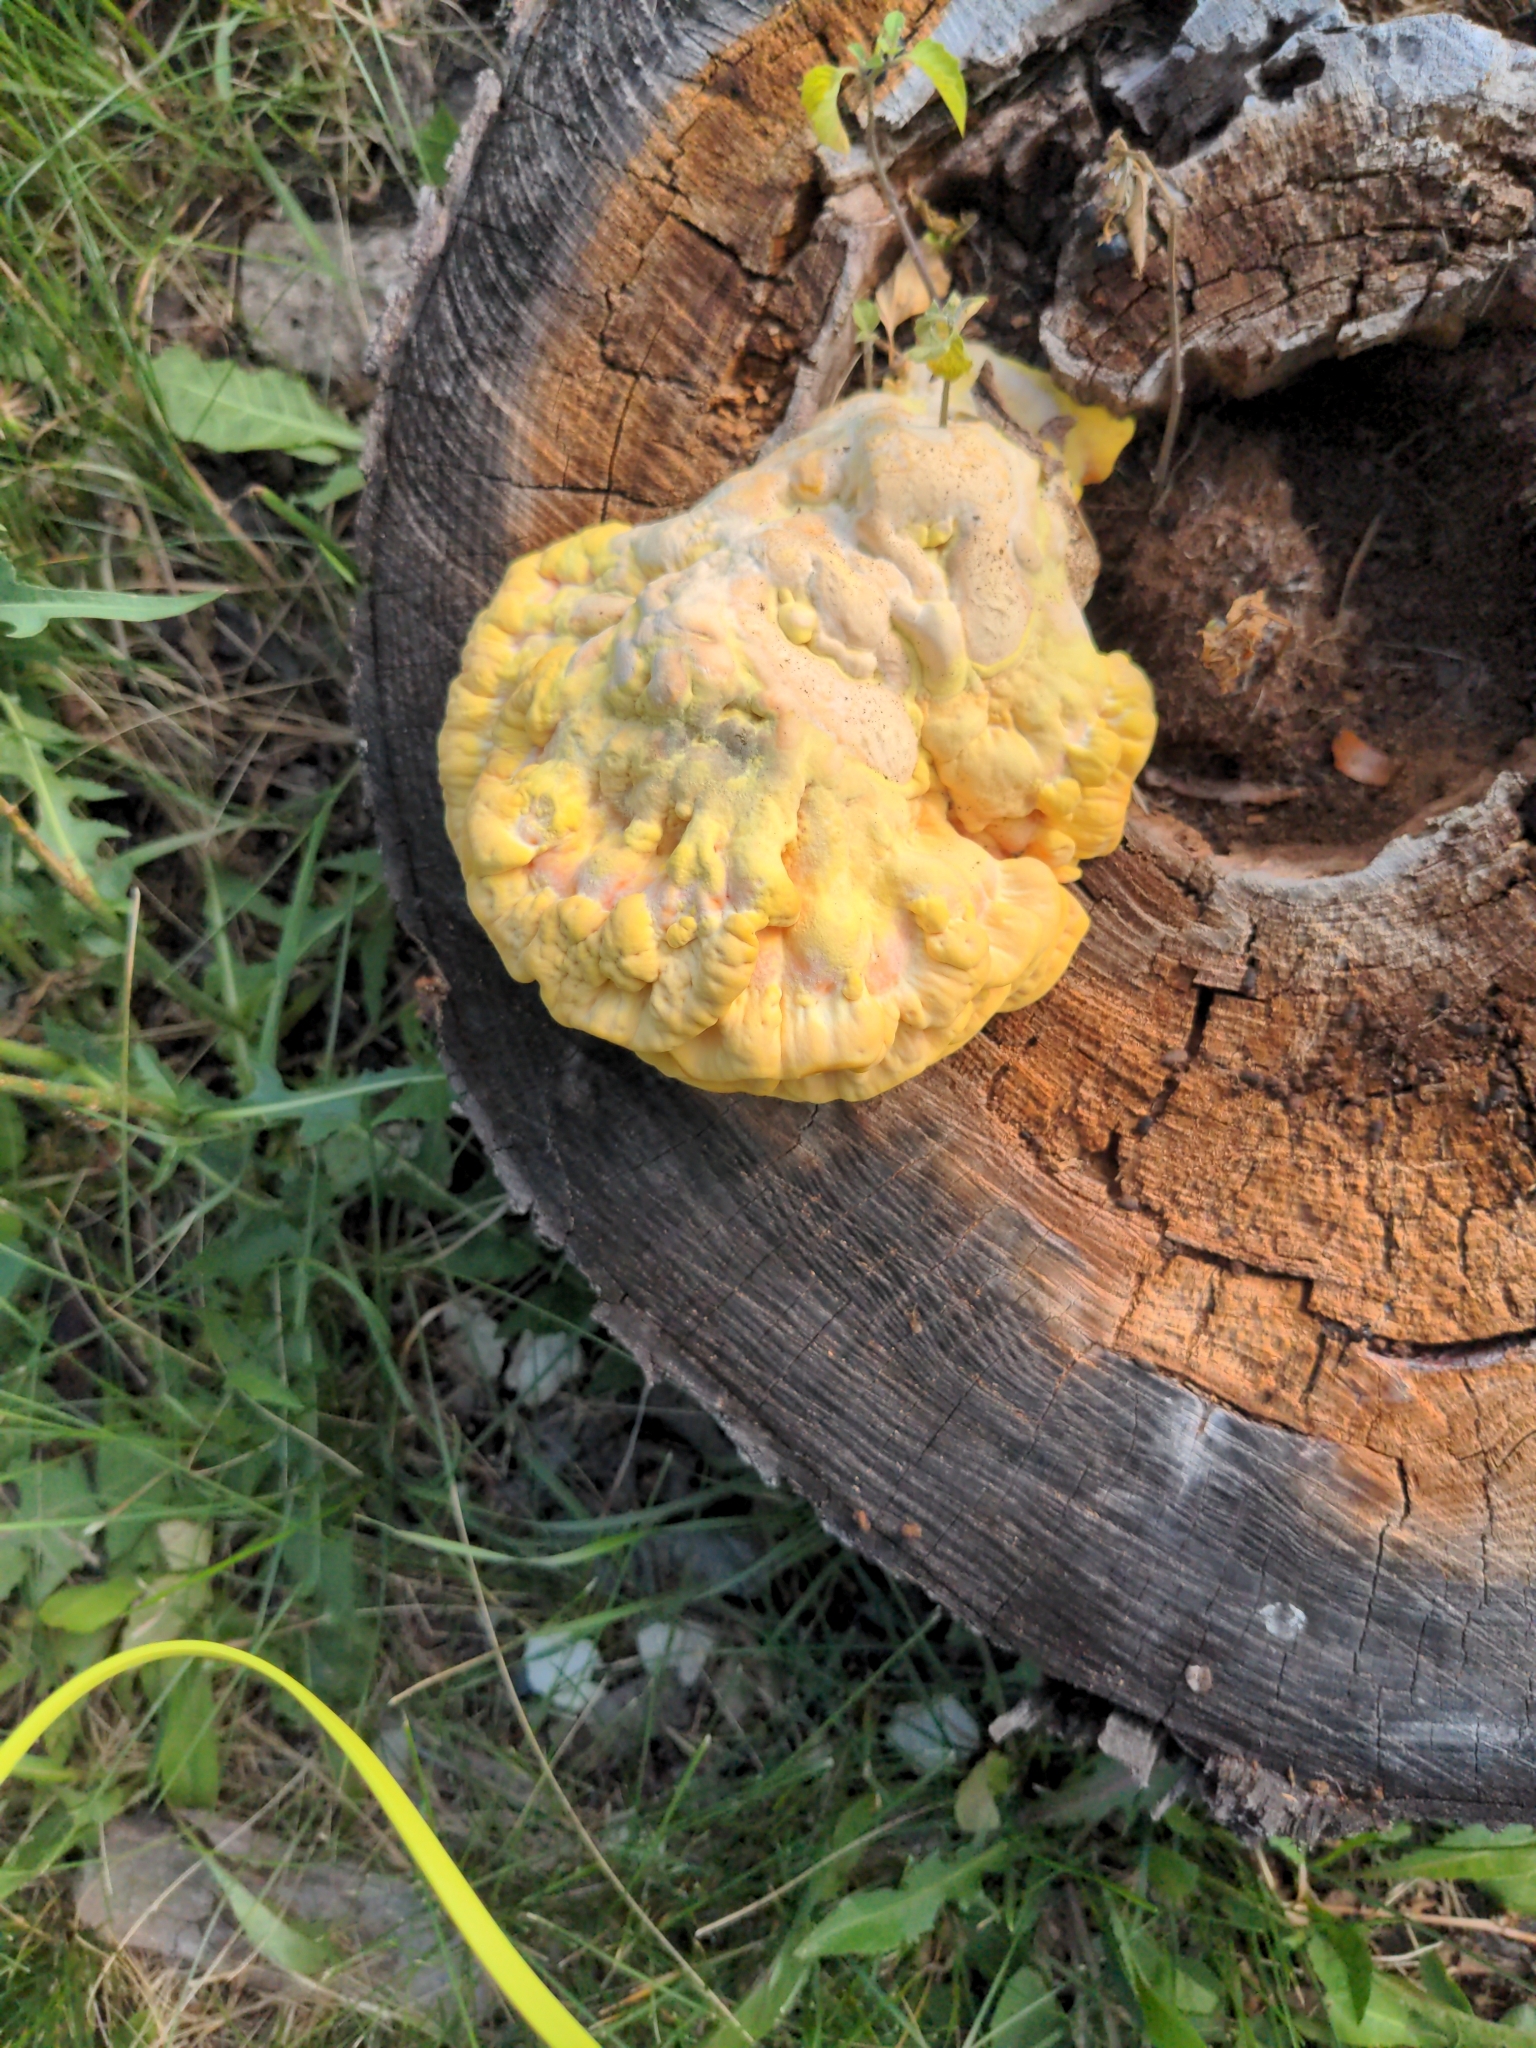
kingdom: Fungi
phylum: Basidiomycota
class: Agaricomycetes
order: Polyporales
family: Laetiporaceae
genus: Laetiporus
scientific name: Laetiporus sulphureus
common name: Chicken of the woods
